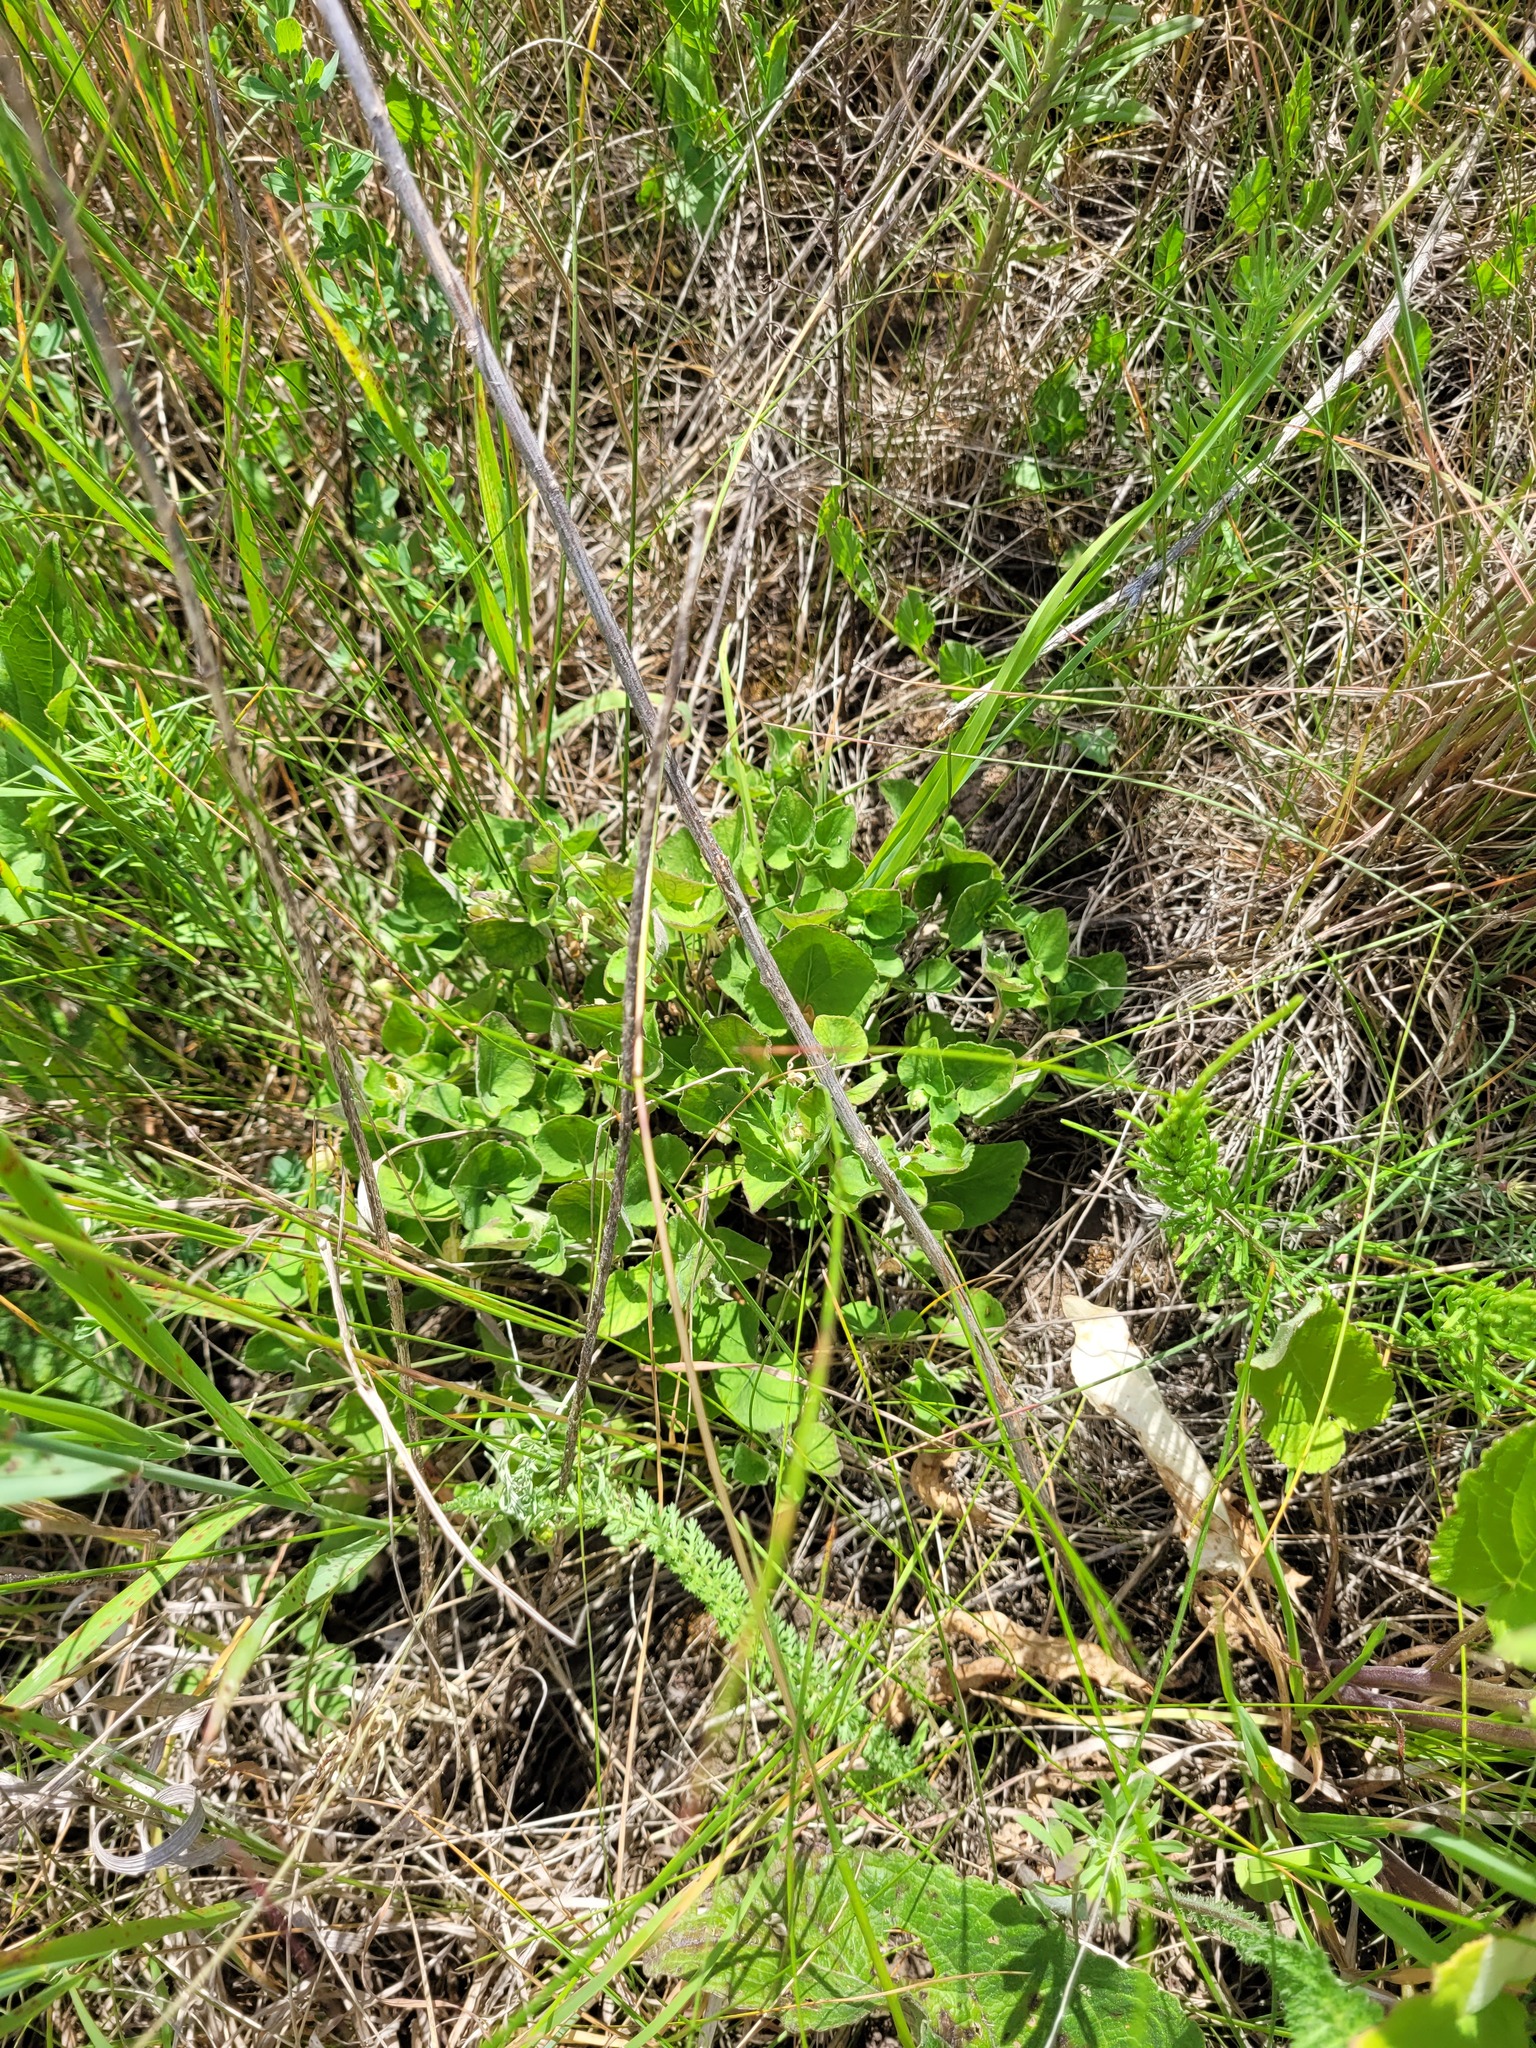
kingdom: Plantae
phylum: Tracheophyta
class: Magnoliopsida
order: Malpighiales
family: Violaceae
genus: Viola
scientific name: Viola rupestris
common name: Teesdale violet
